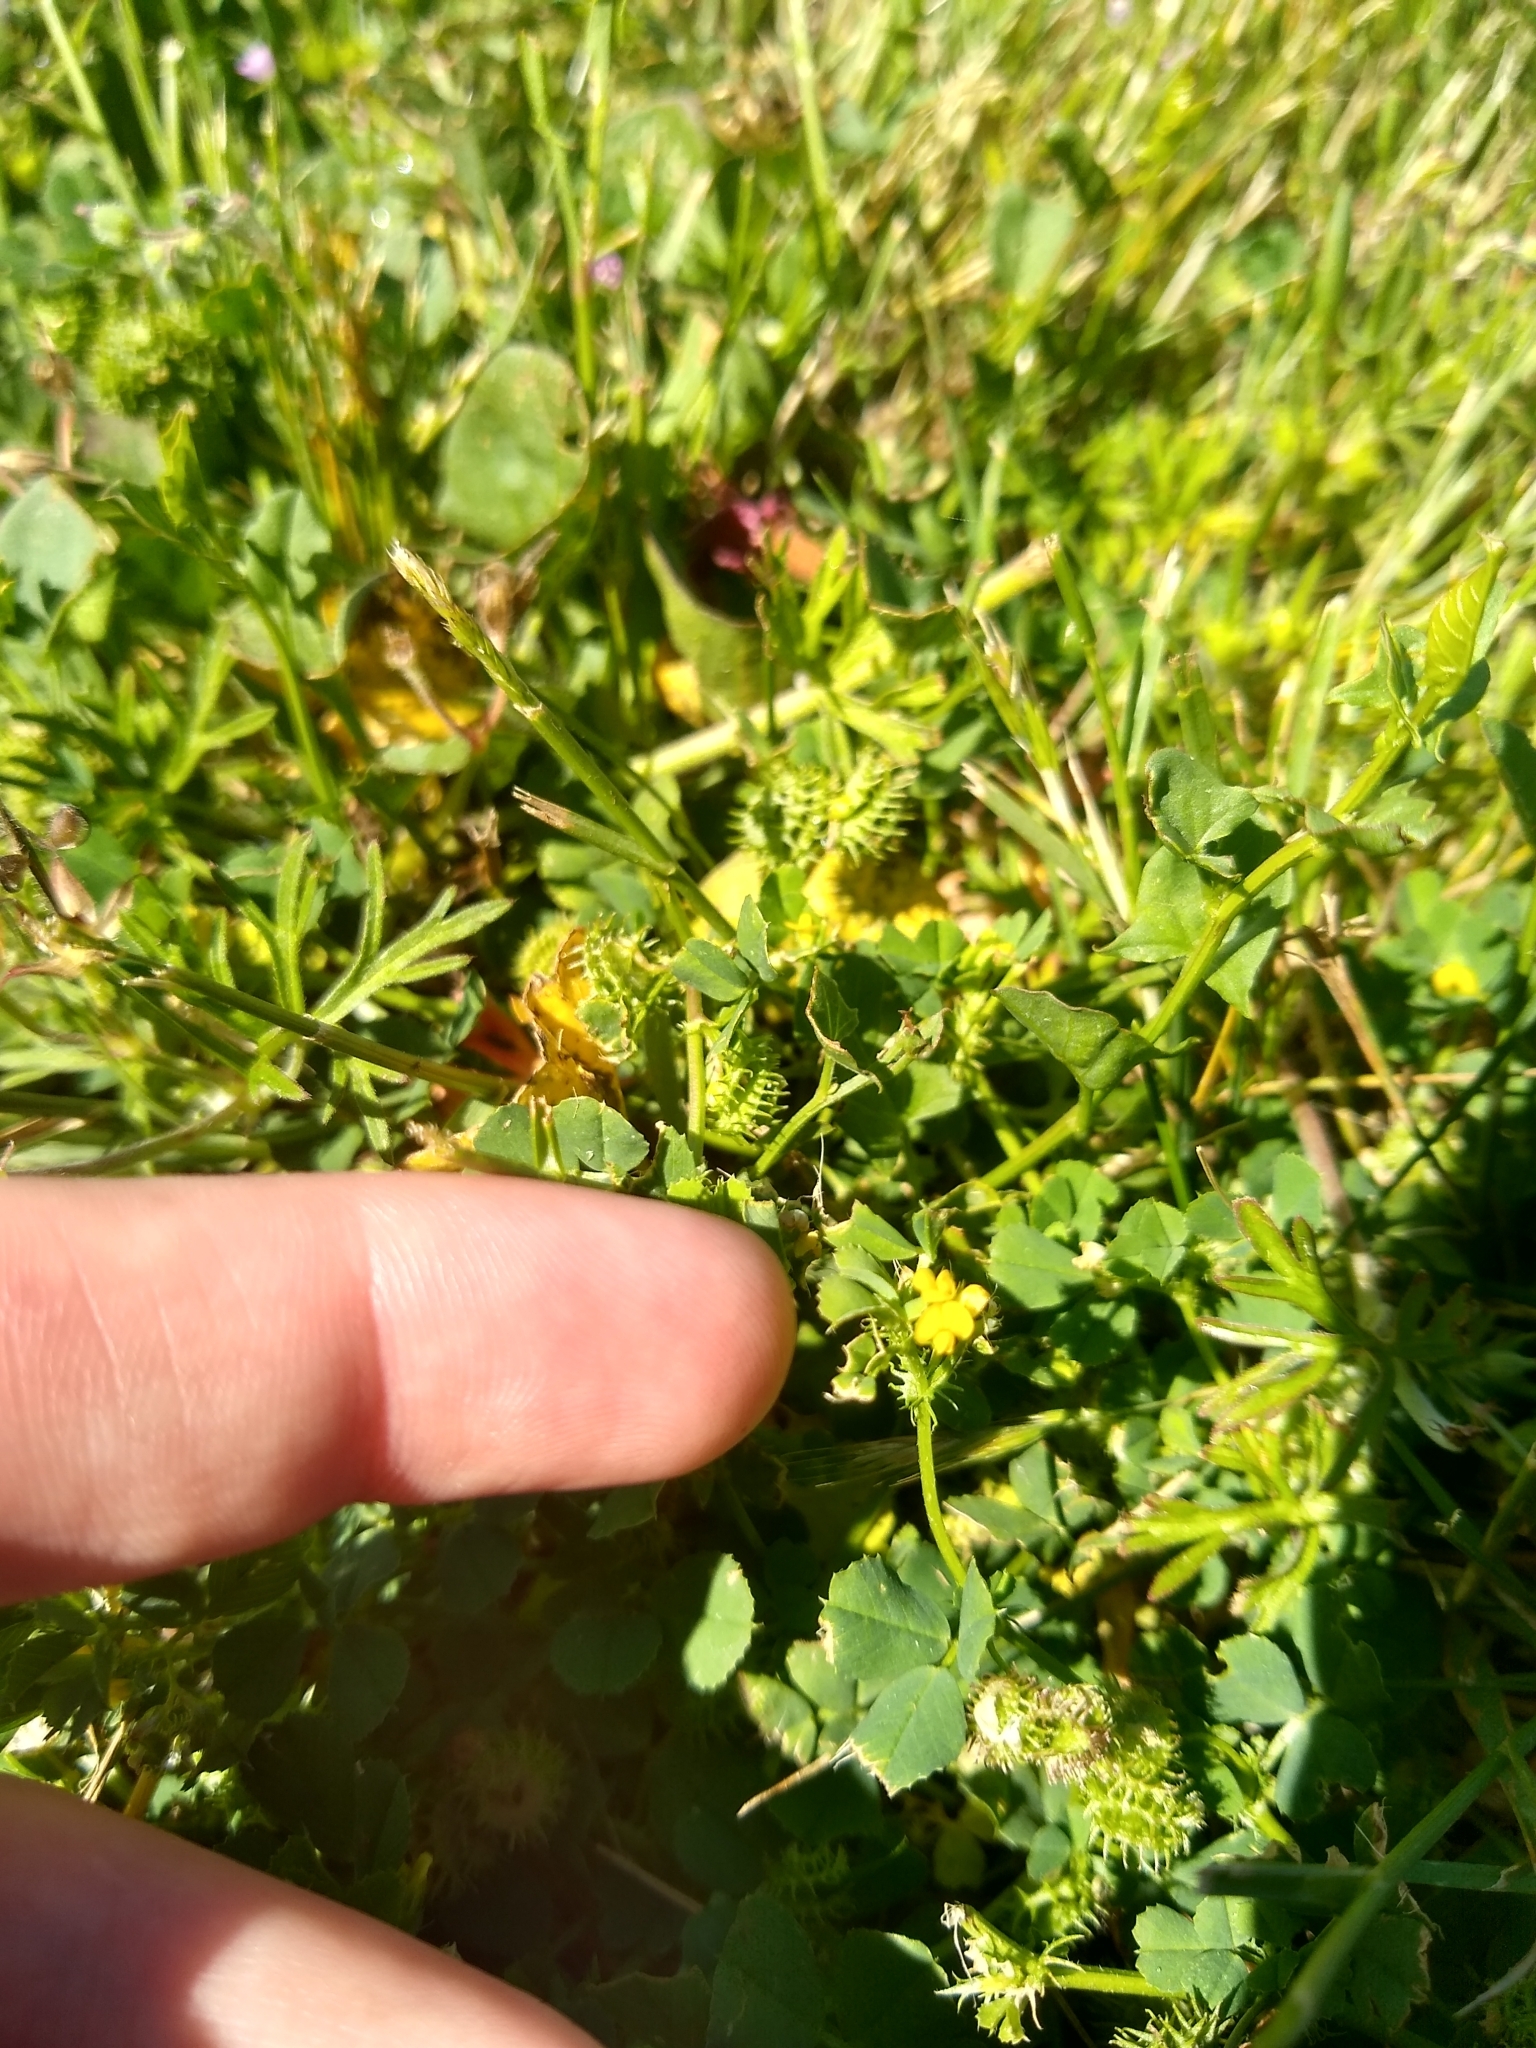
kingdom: Plantae
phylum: Tracheophyta
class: Magnoliopsida
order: Fabales
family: Fabaceae
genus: Medicago
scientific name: Medicago polymorpha
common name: Burclover
